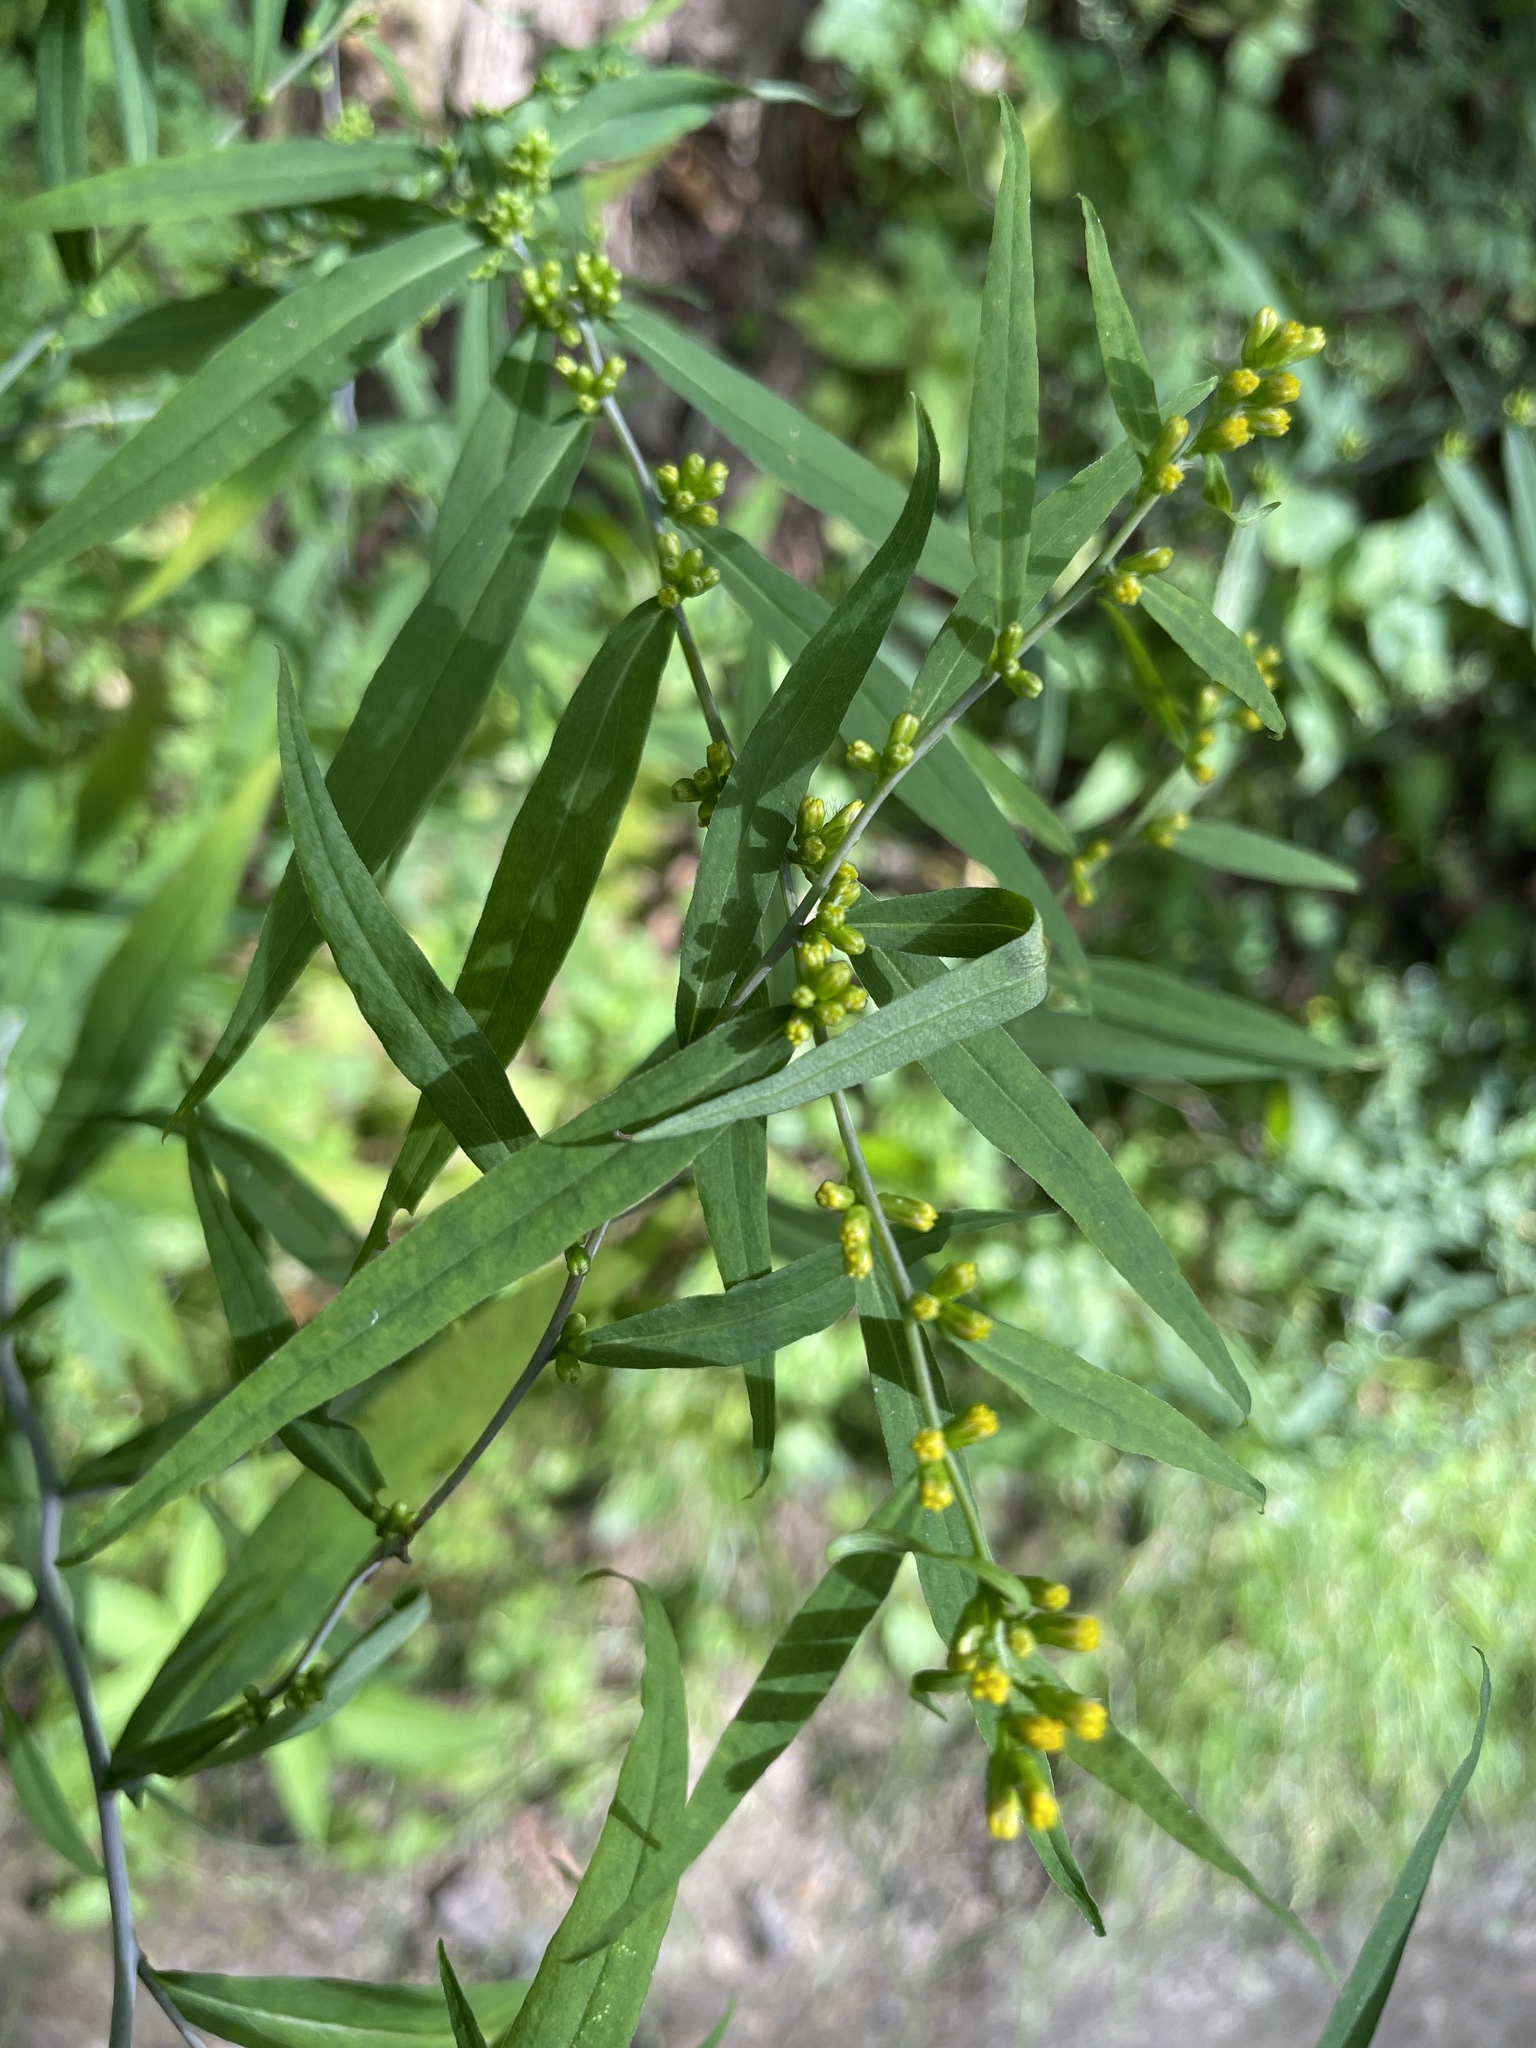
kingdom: Plantae
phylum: Tracheophyta
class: Magnoliopsida
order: Asterales
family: Asteraceae
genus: Solidago
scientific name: Solidago caesia
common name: Woodland goldenrod
